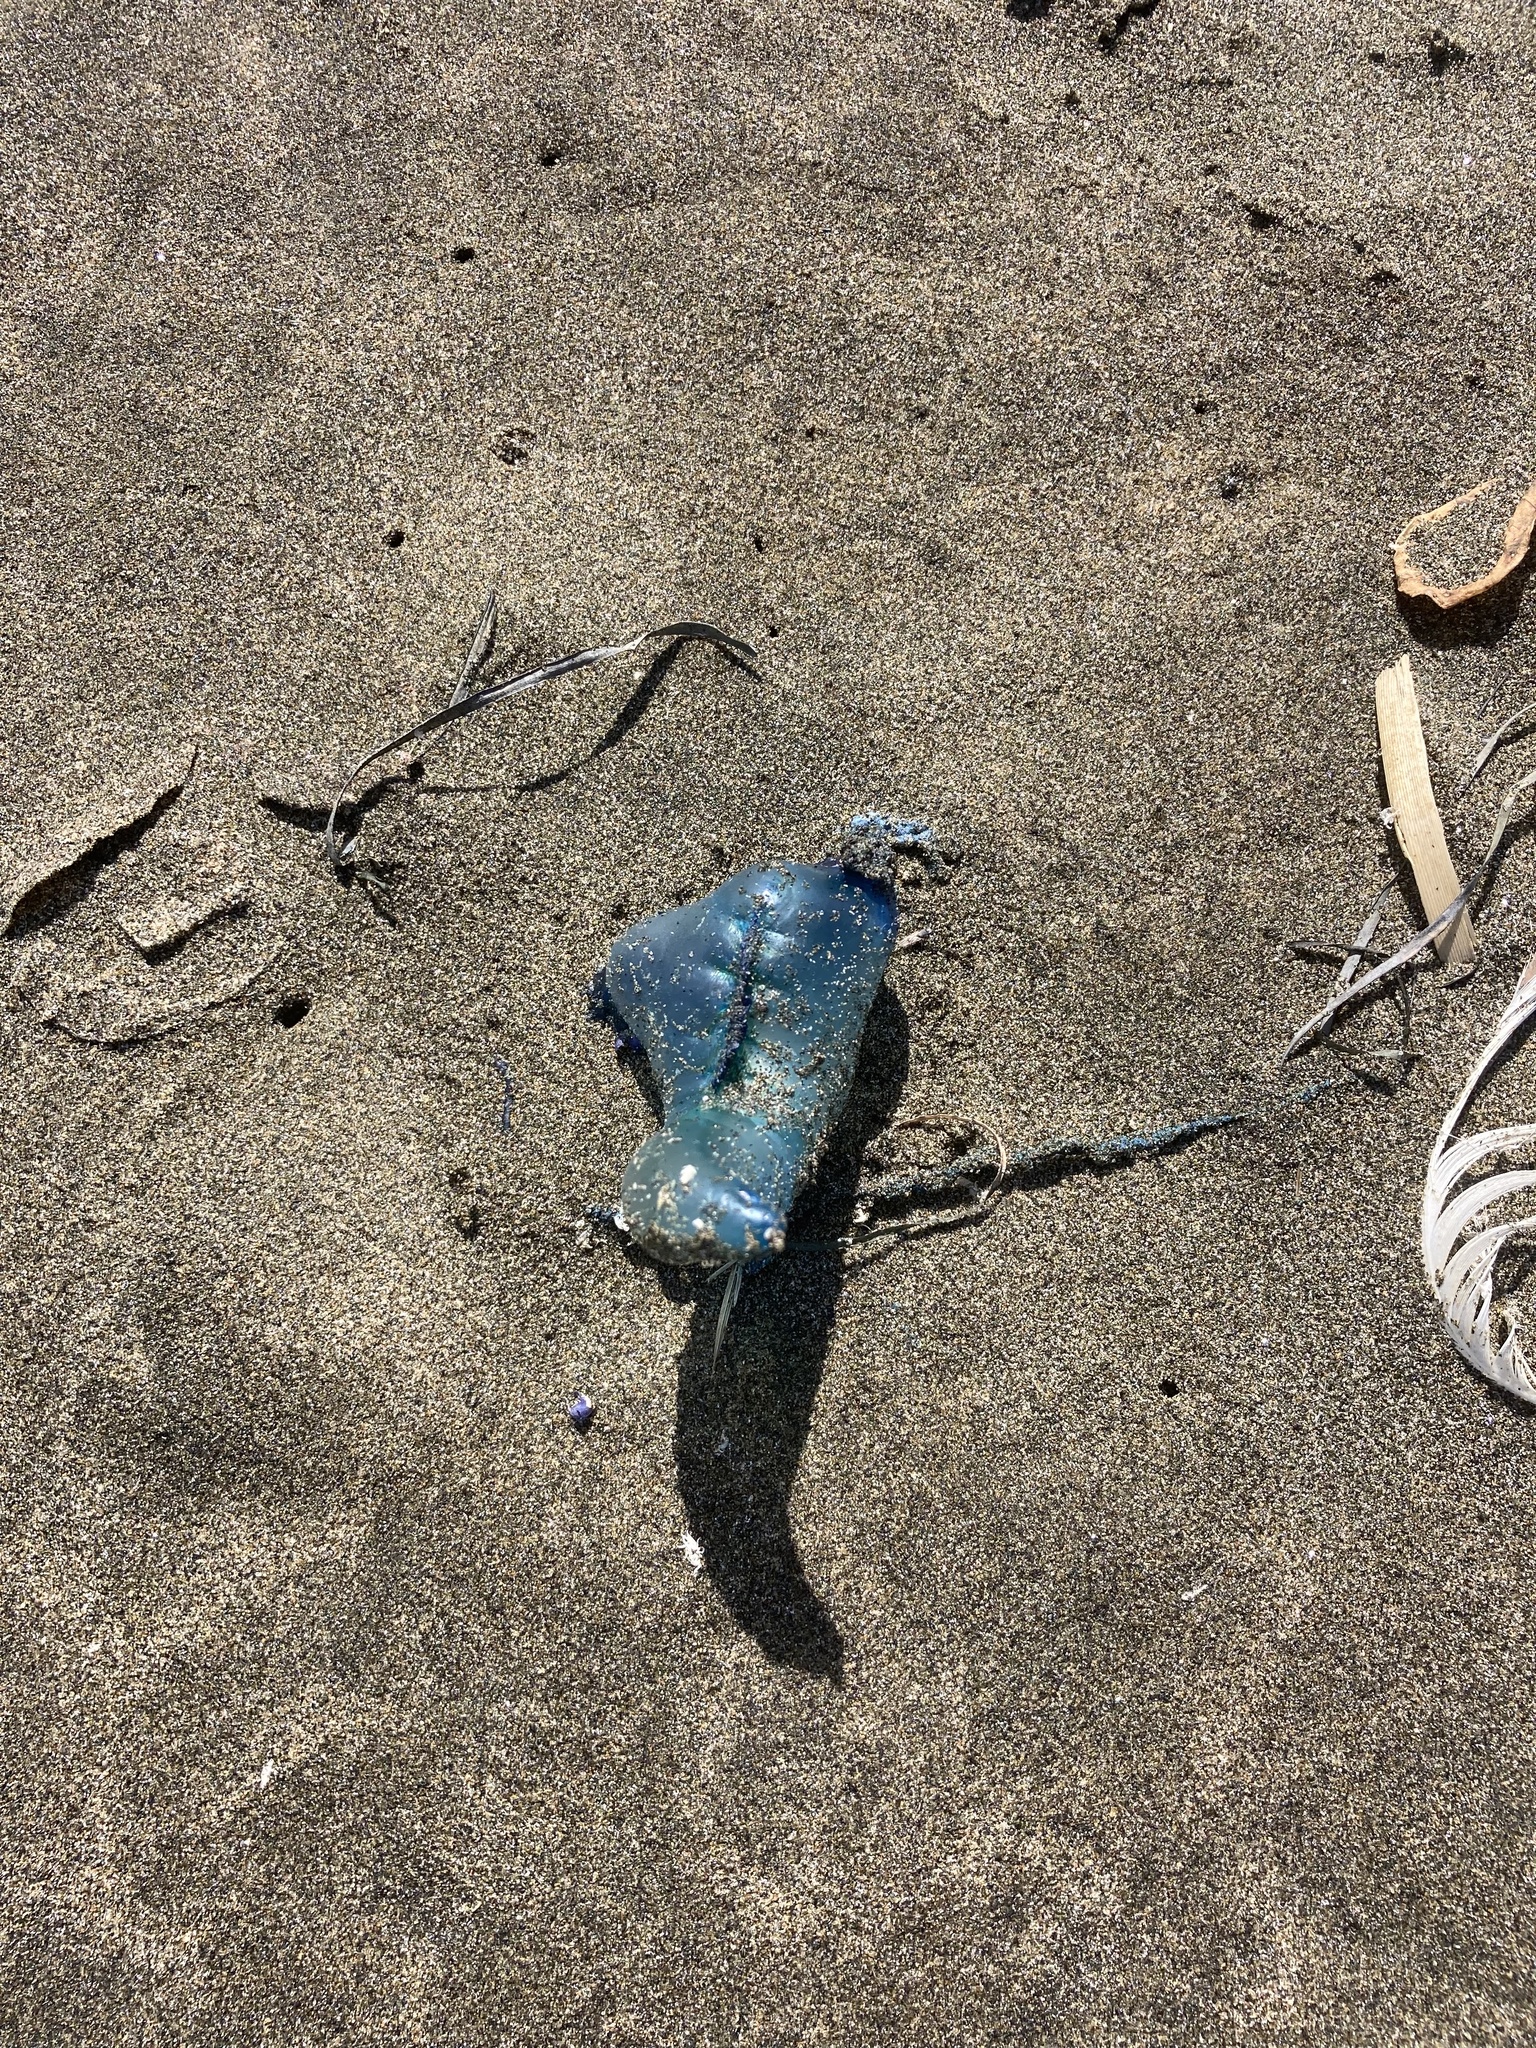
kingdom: Animalia
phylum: Cnidaria
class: Hydrozoa
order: Siphonophorae
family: Physaliidae
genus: Physalia
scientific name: Physalia physalis
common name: Portuguese man-of-war
